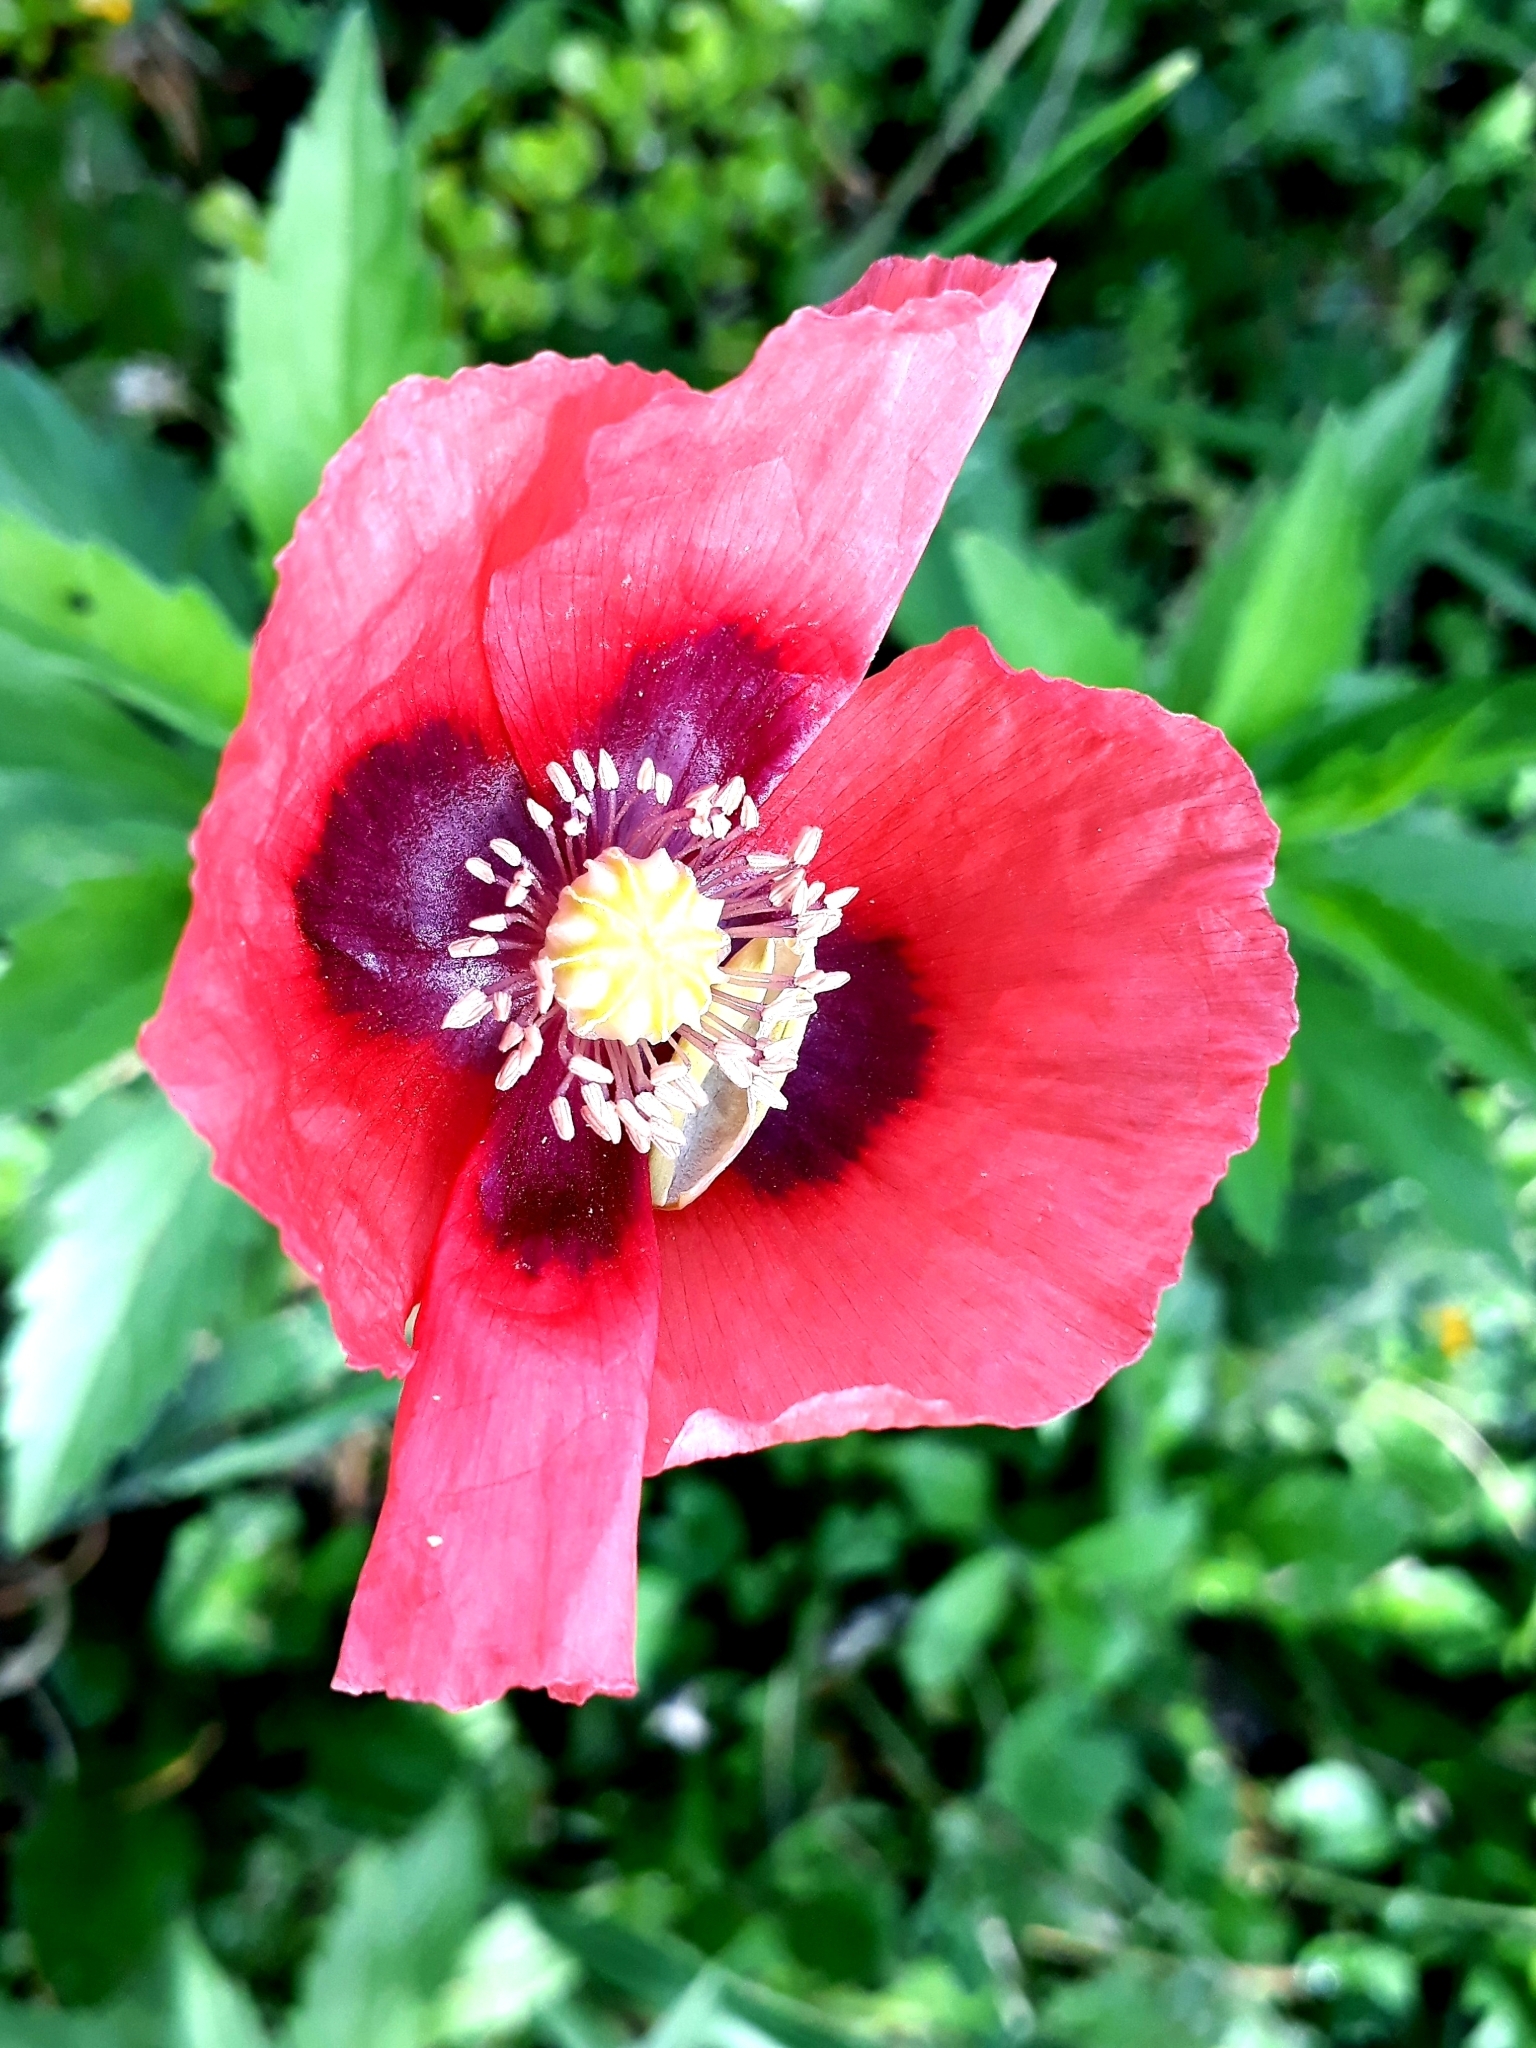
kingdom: Plantae
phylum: Tracheophyta
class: Magnoliopsida
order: Ranunculales
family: Papaveraceae
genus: Papaver
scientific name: Papaver somniferum
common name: Opium poppy
